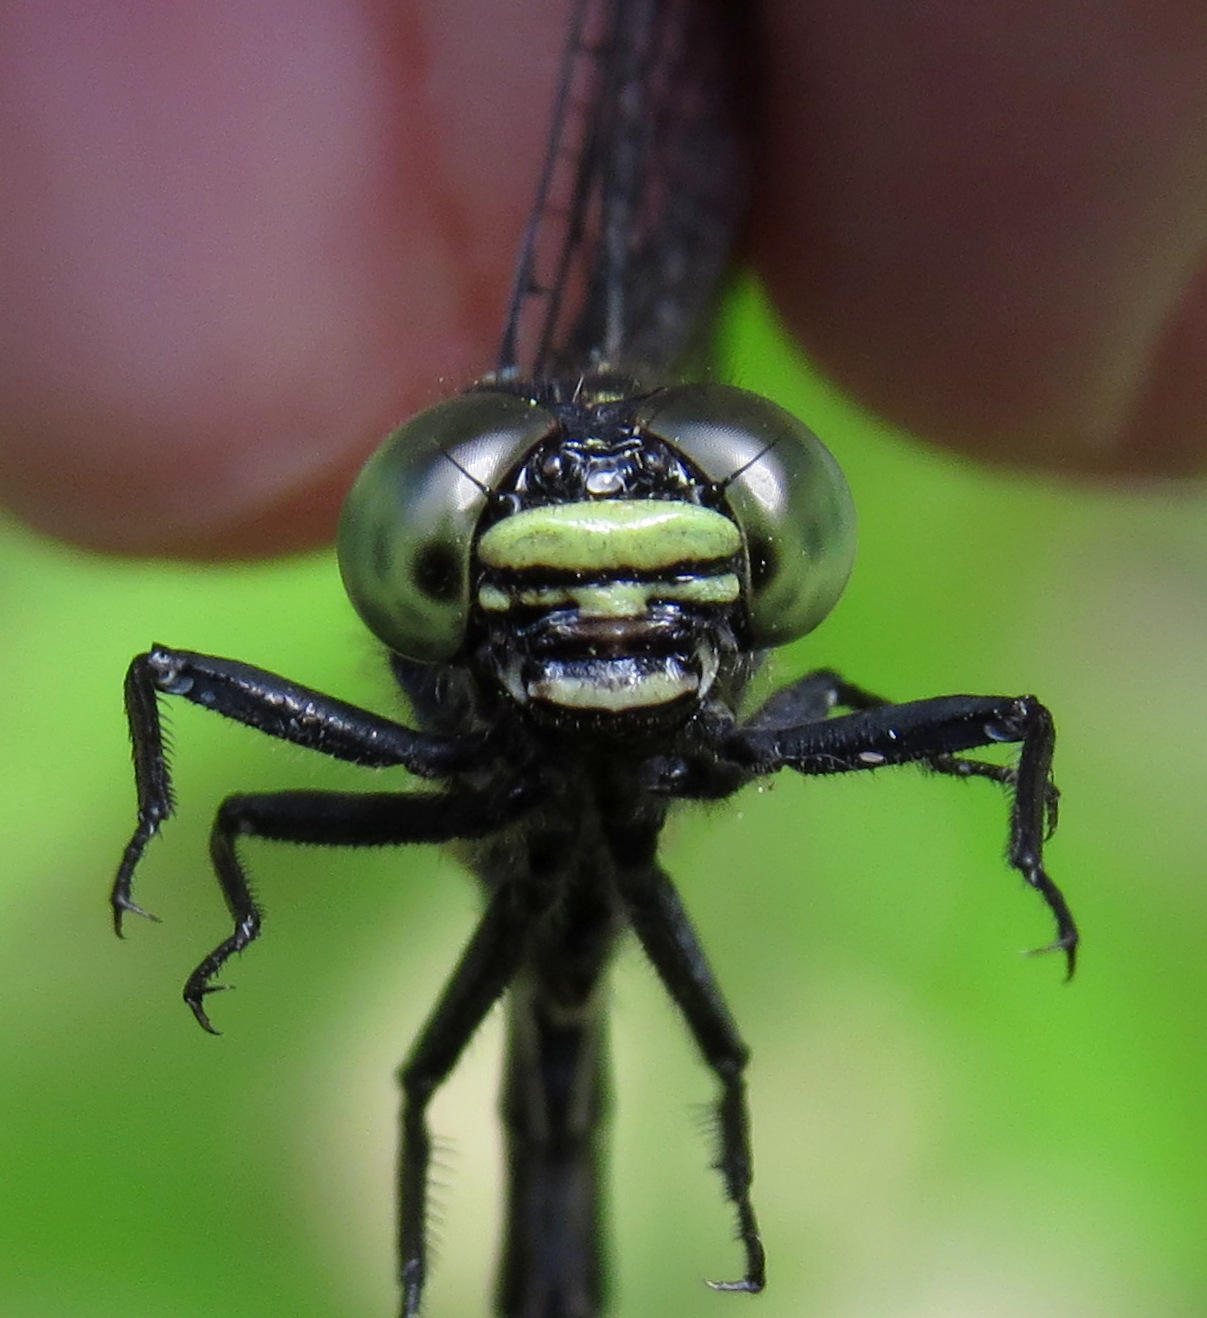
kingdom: Animalia
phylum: Arthropoda
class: Insecta
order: Odonata
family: Gomphidae
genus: Lanthus
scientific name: Lanthus vernalis
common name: Southern pygmy clubtail
